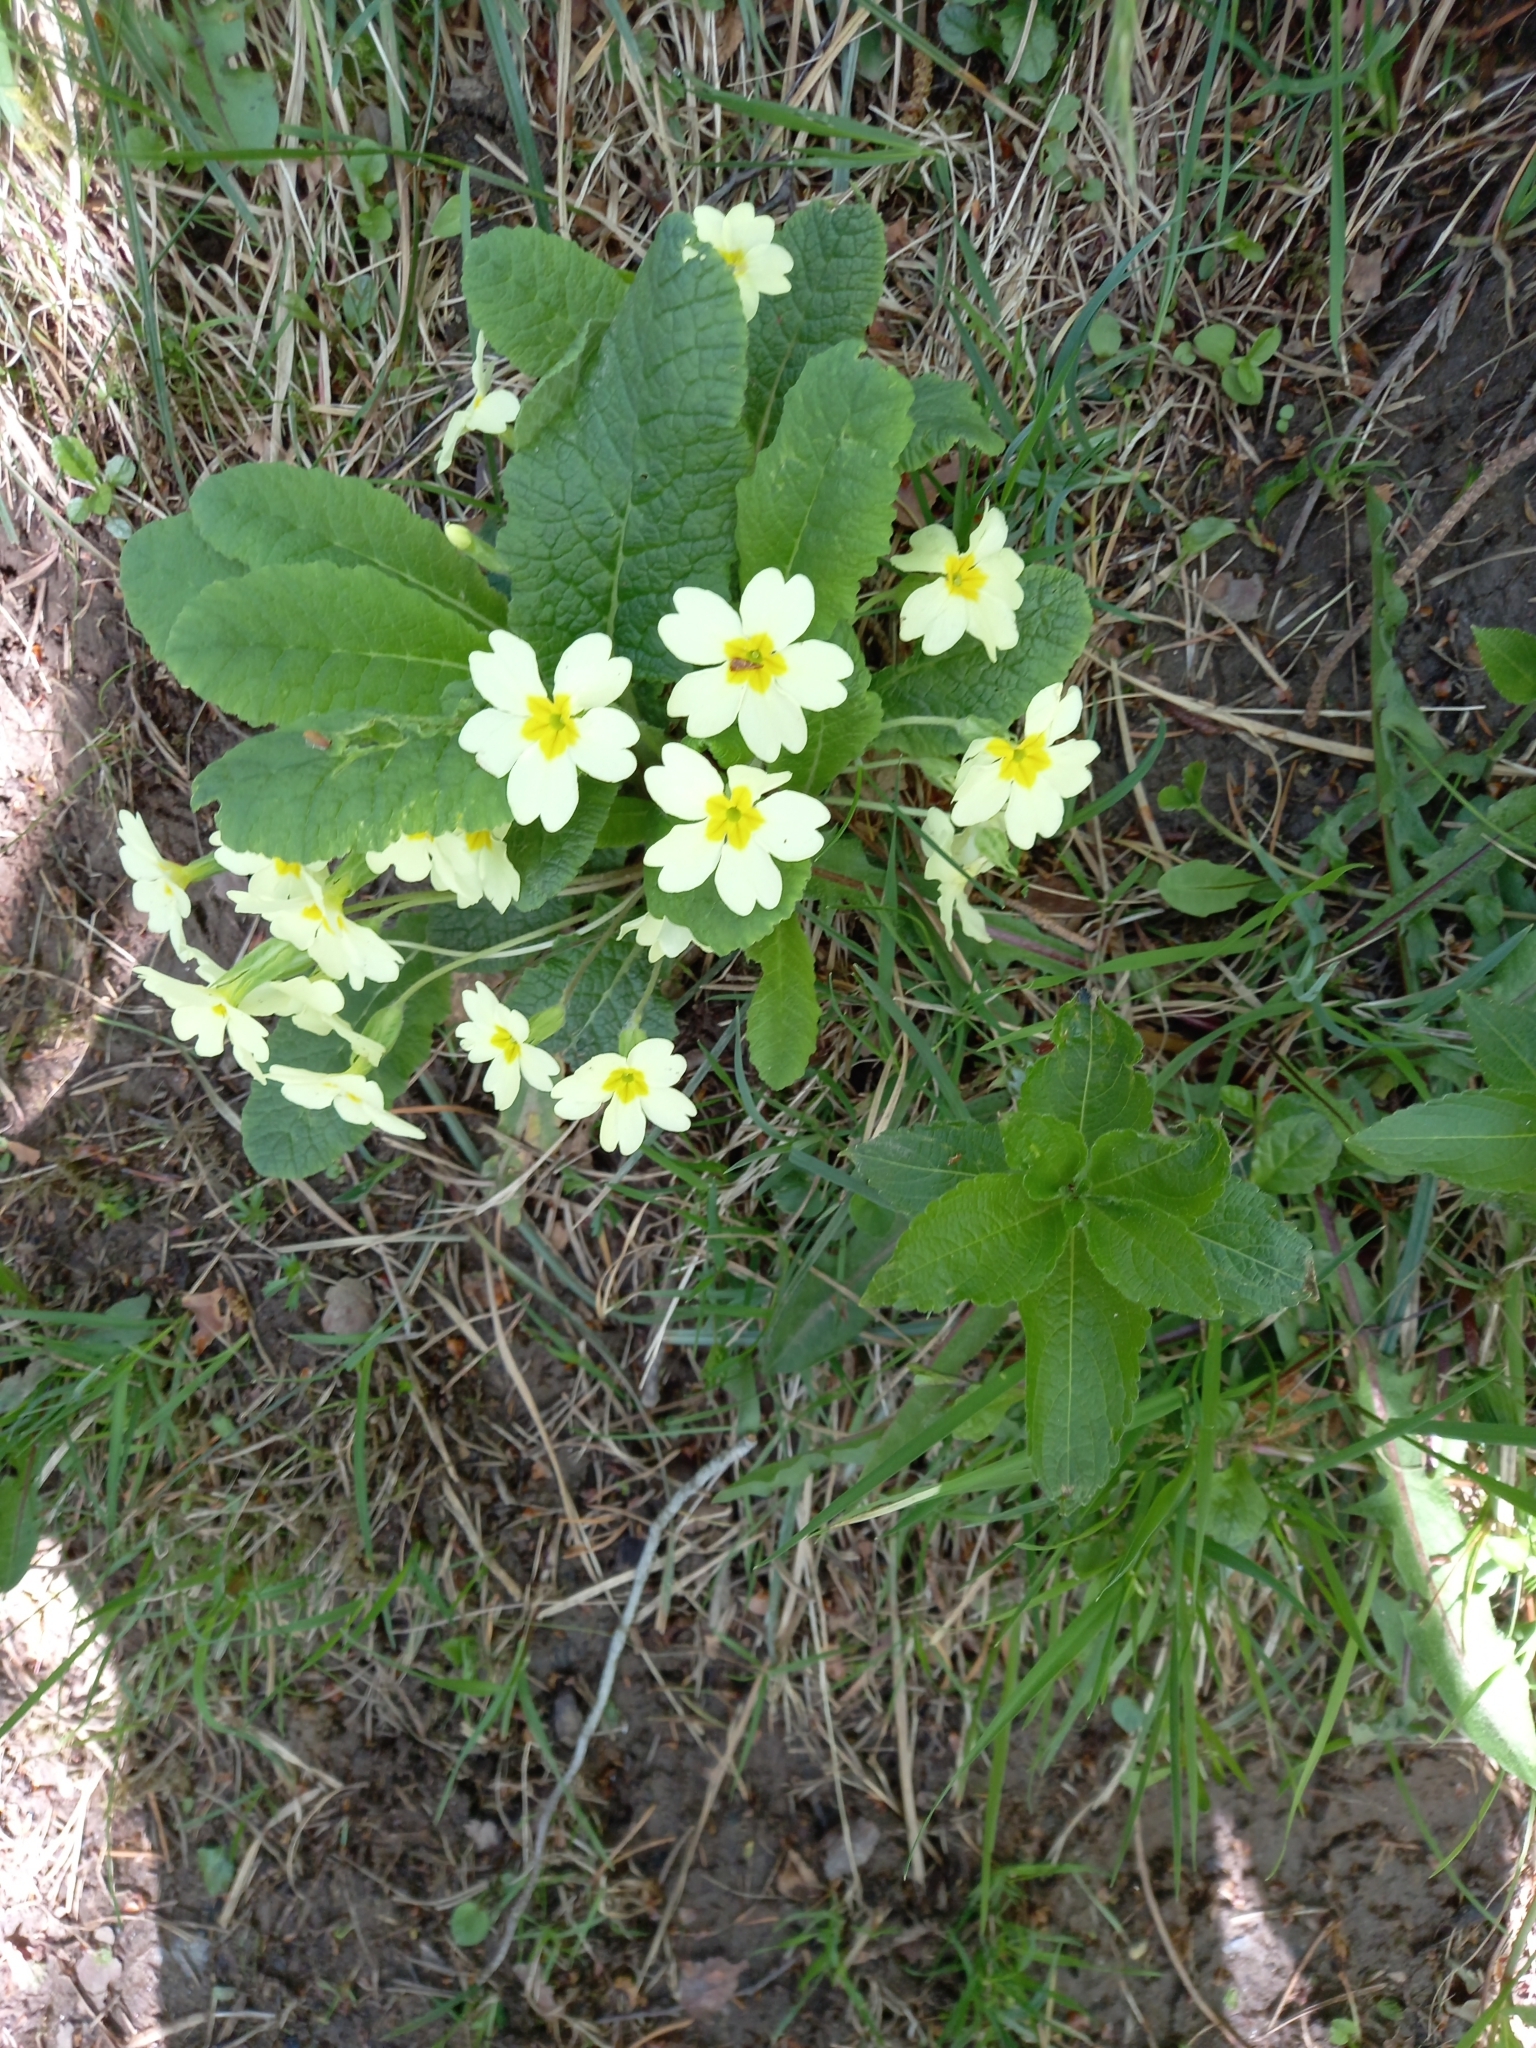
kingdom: Plantae
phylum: Tracheophyta
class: Magnoliopsida
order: Ericales
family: Primulaceae
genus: Primula
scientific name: Primula vulgaris
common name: Primrose
